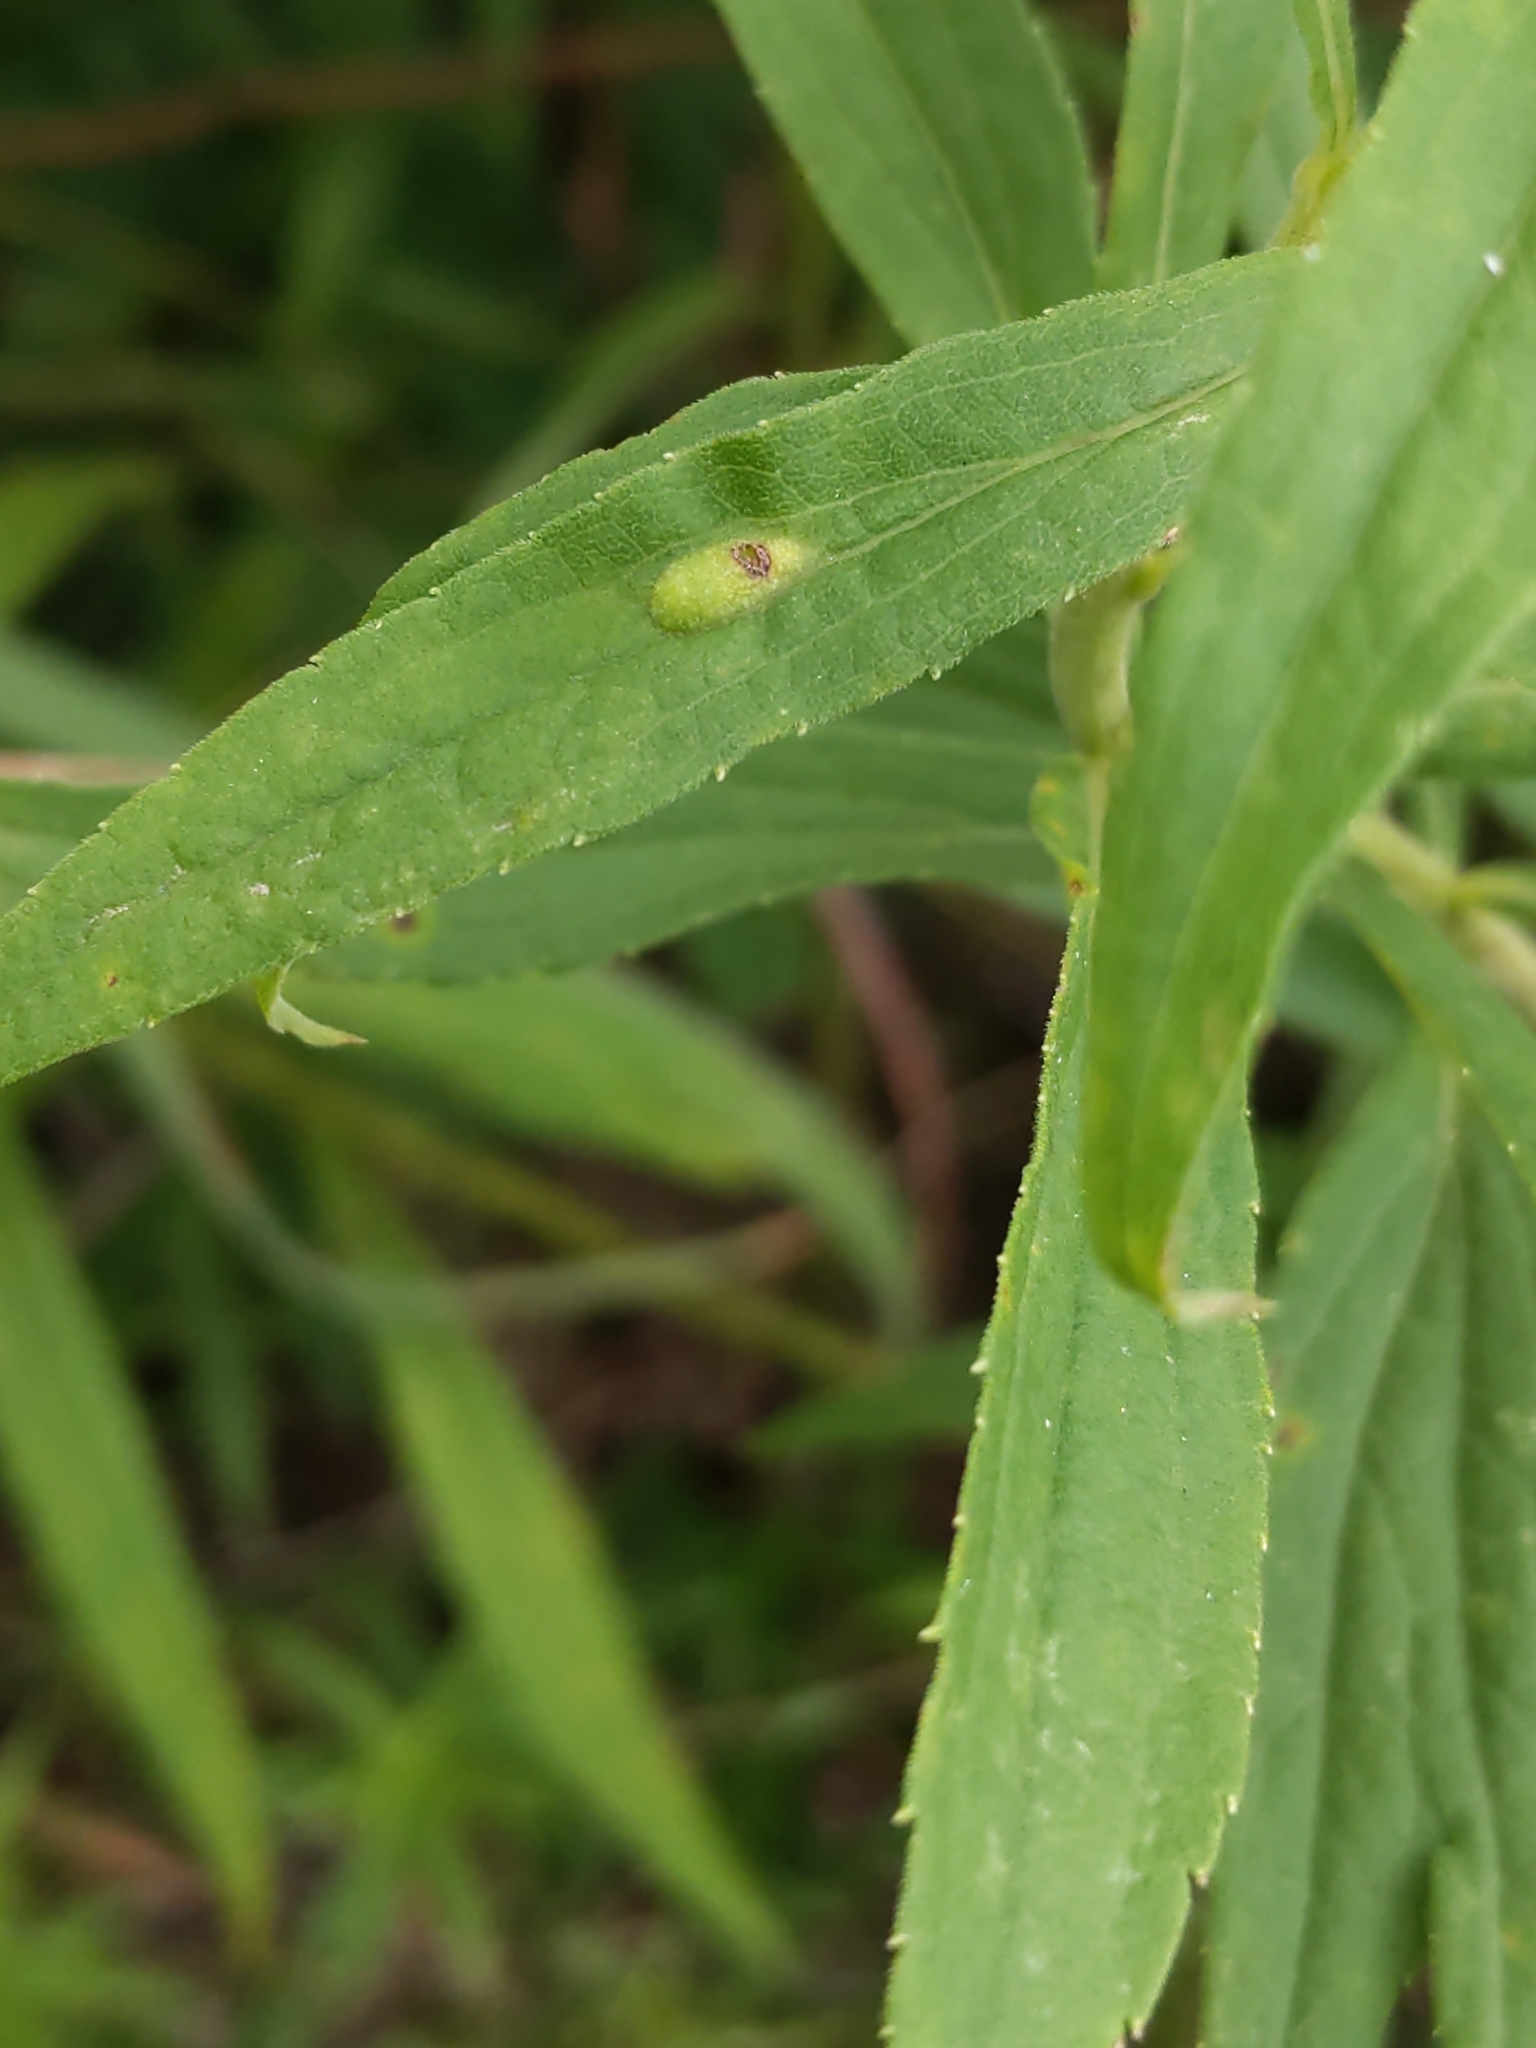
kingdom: Animalia
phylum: Arthropoda
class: Insecta
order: Diptera
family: Cecidomyiidae
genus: Asphondylia
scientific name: Asphondylia solidaginis
